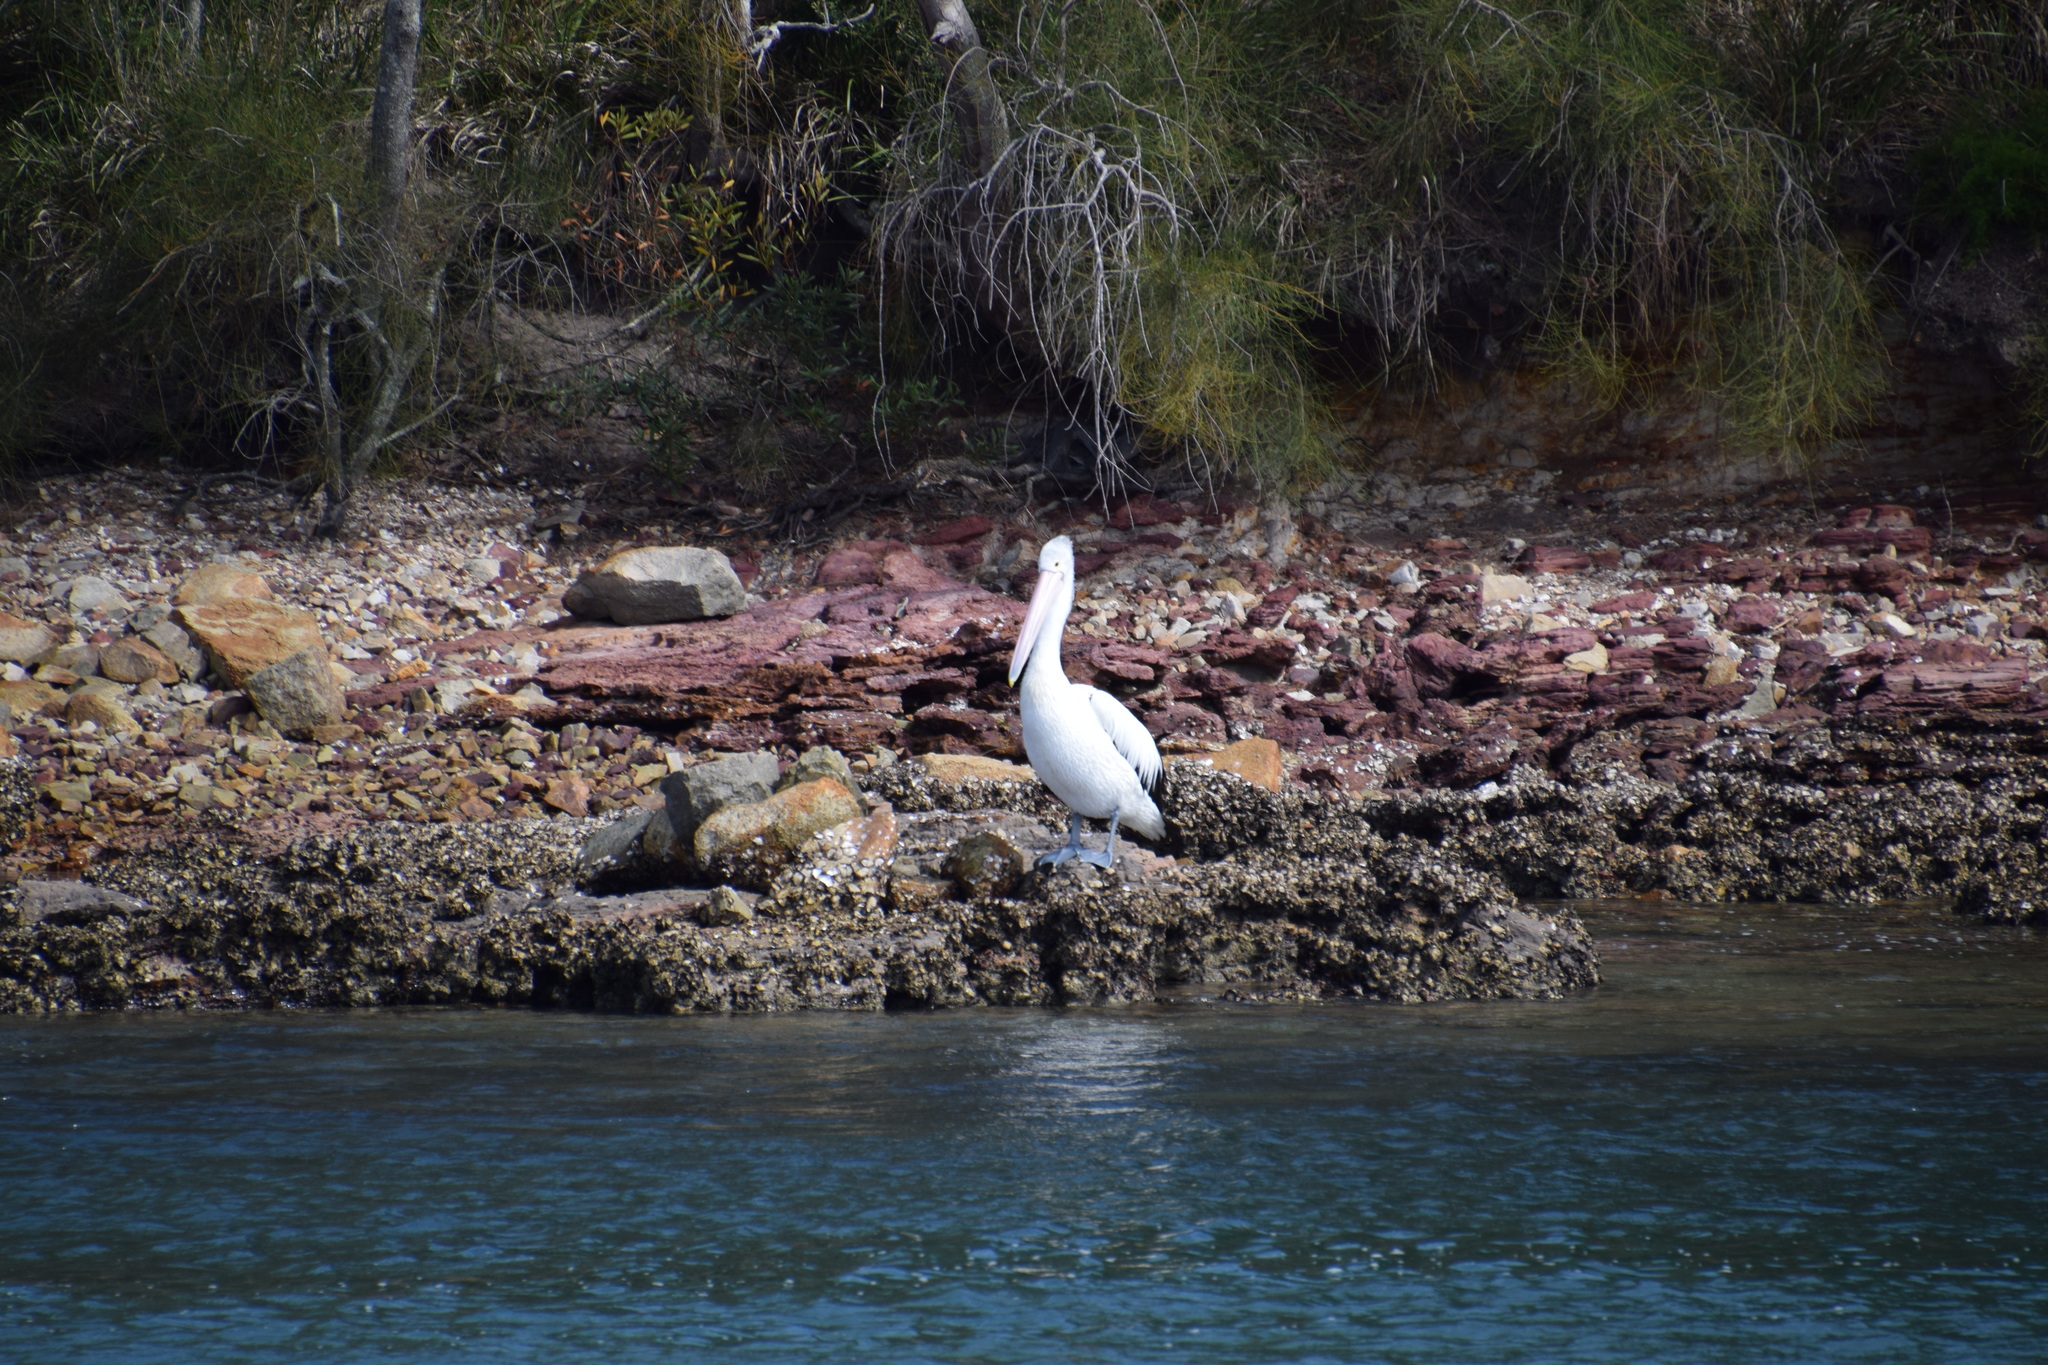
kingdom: Animalia
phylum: Chordata
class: Aves
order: Pelecaniformes
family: Pelecanidae
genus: Pelecanus
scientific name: Pelecanus conspicillatus
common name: Australian pelican
